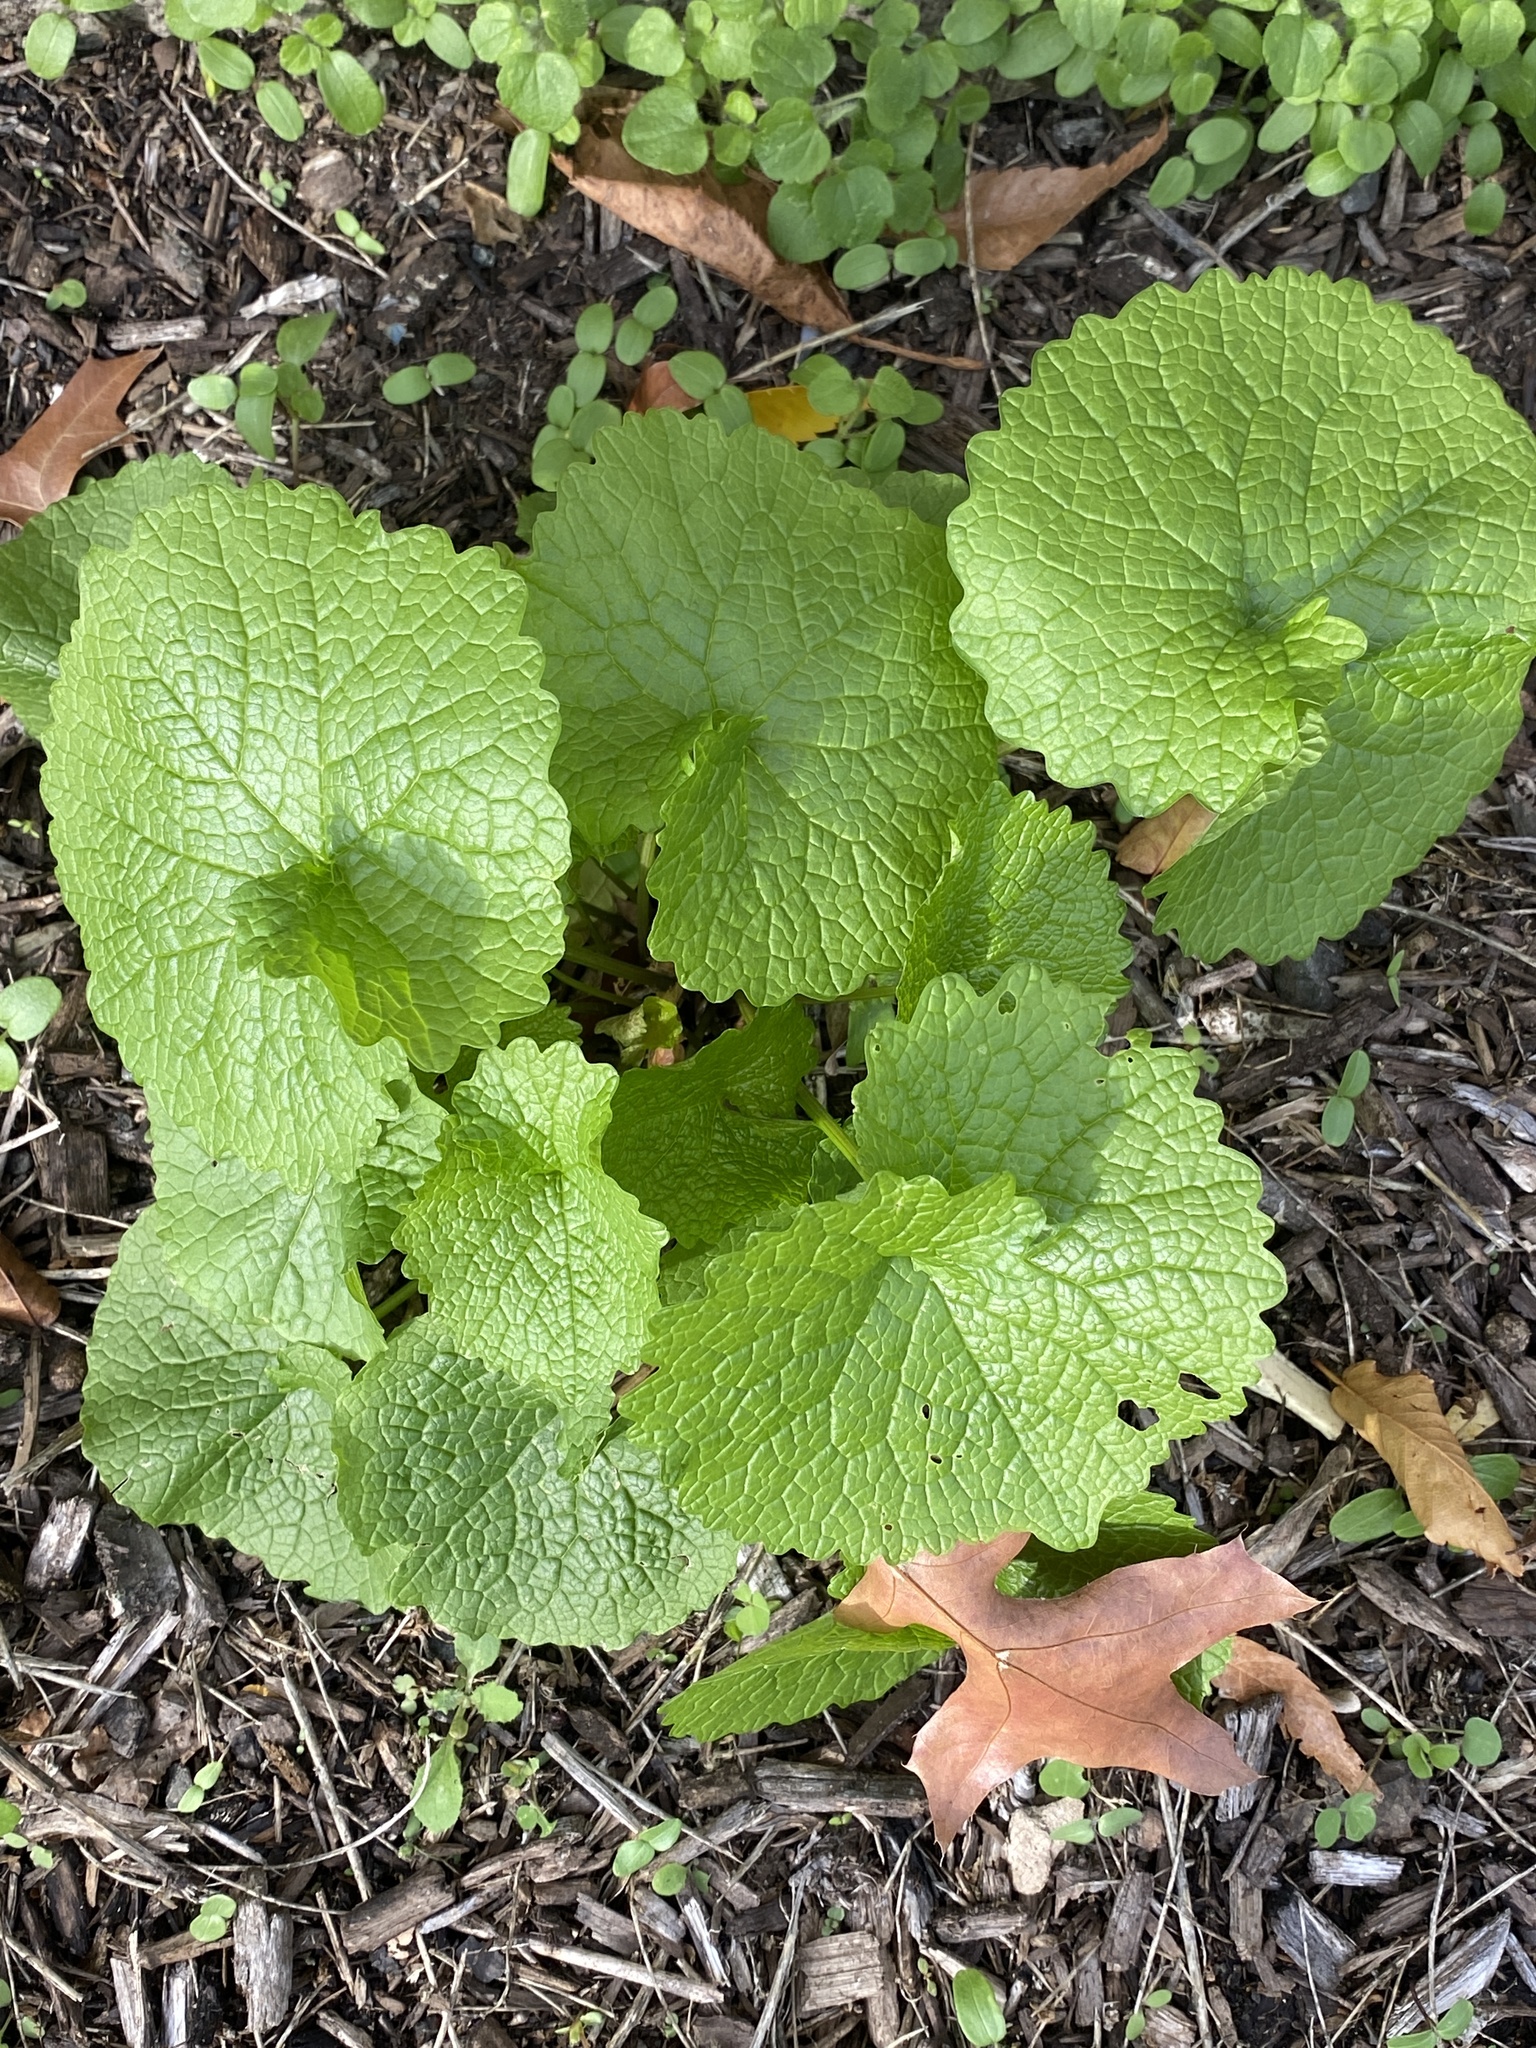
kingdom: Plantae
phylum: Tracheophyta
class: Magnoliopsida
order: Brassicales
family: Brassicaceae
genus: Alliaria
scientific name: Alliaria petiolata
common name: Garlic mustard
